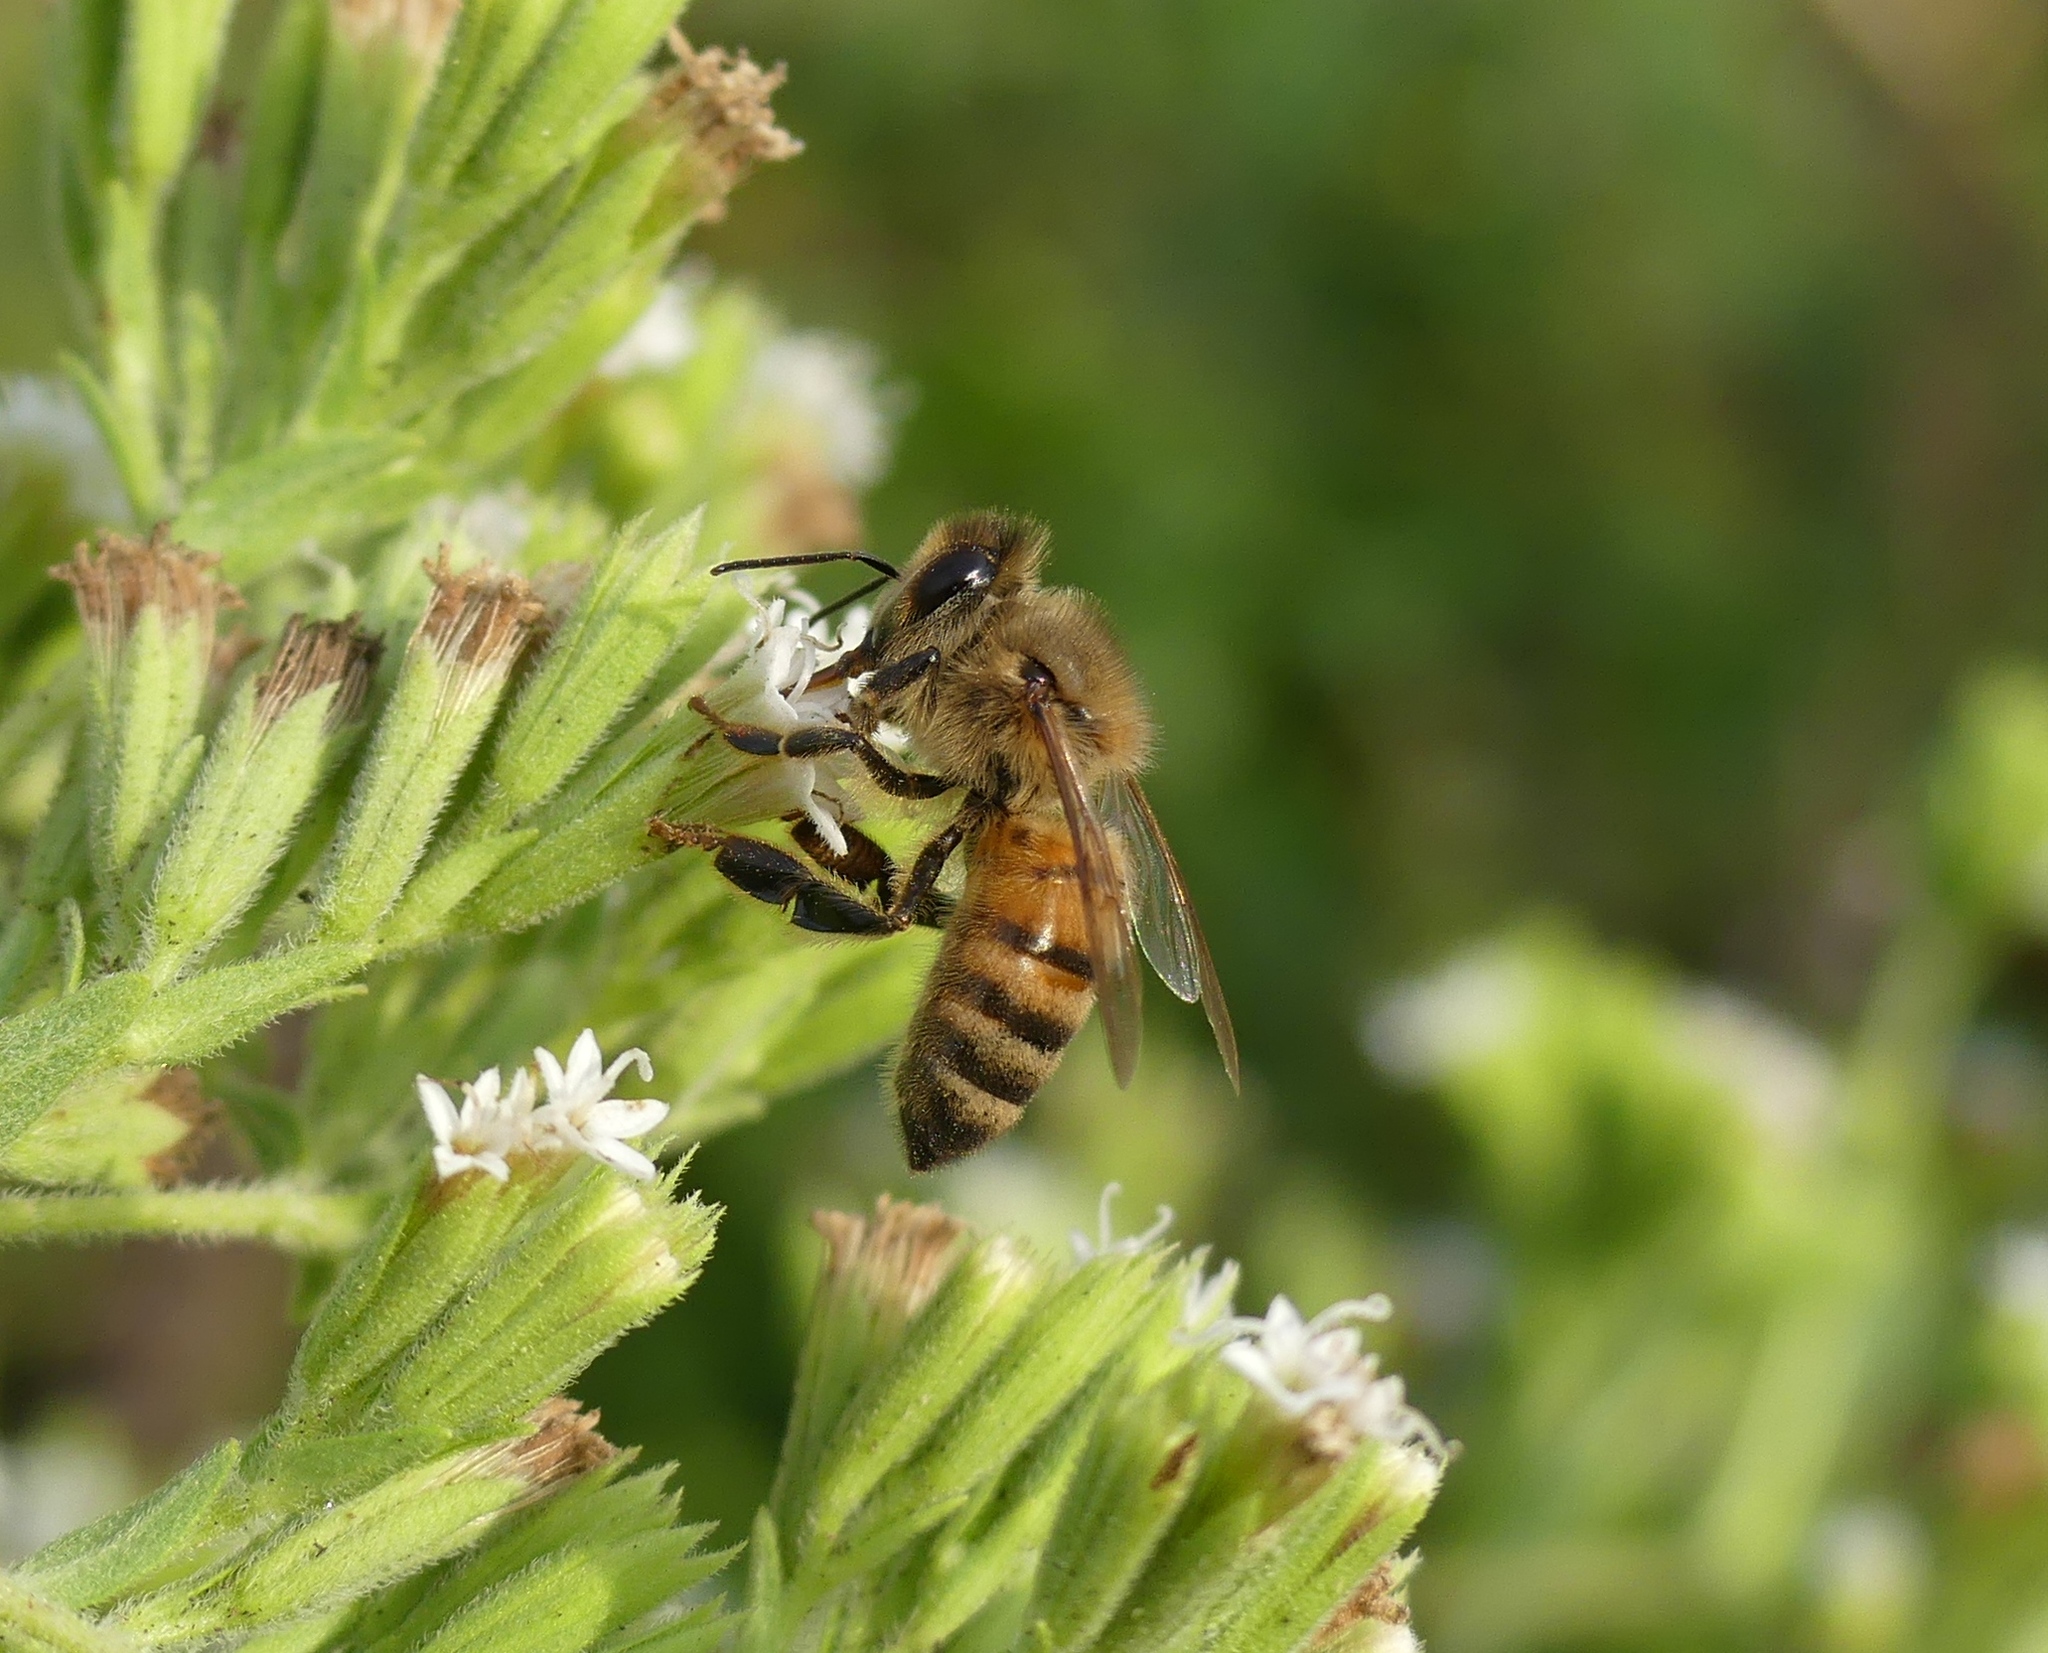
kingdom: Animalia
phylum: Arthropoda
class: Insecta
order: Hymenoptera
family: Apidae
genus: Apis
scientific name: Apis mellifera
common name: Honey bee
